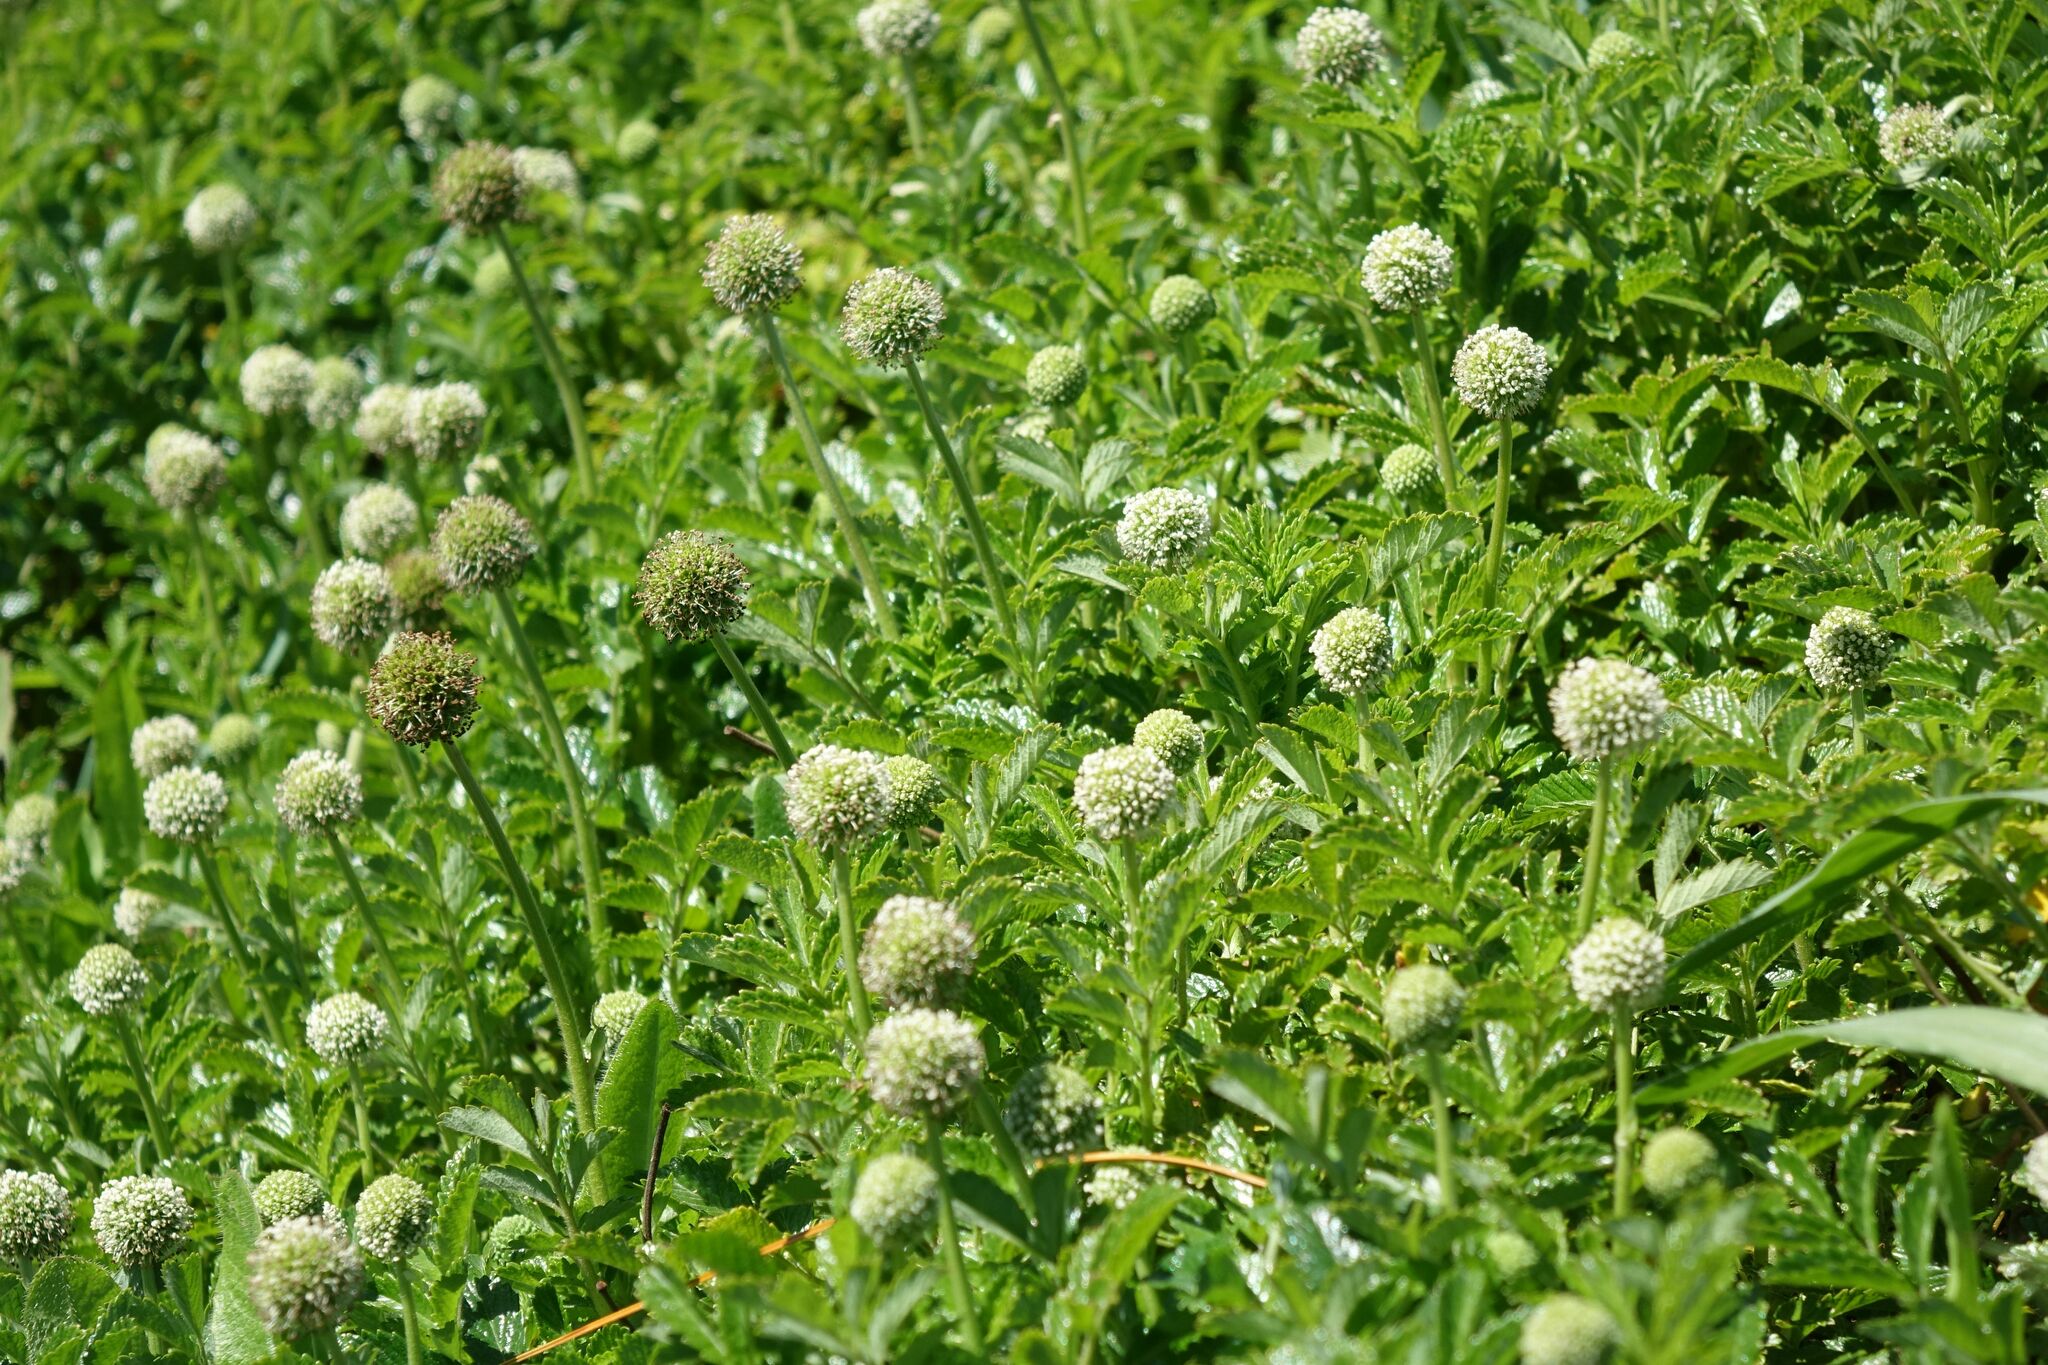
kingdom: Plantae
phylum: Tracheophyta
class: Magnoliopsida
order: Rosales
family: Rosaceae
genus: Acaena
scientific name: Acaena pallida
